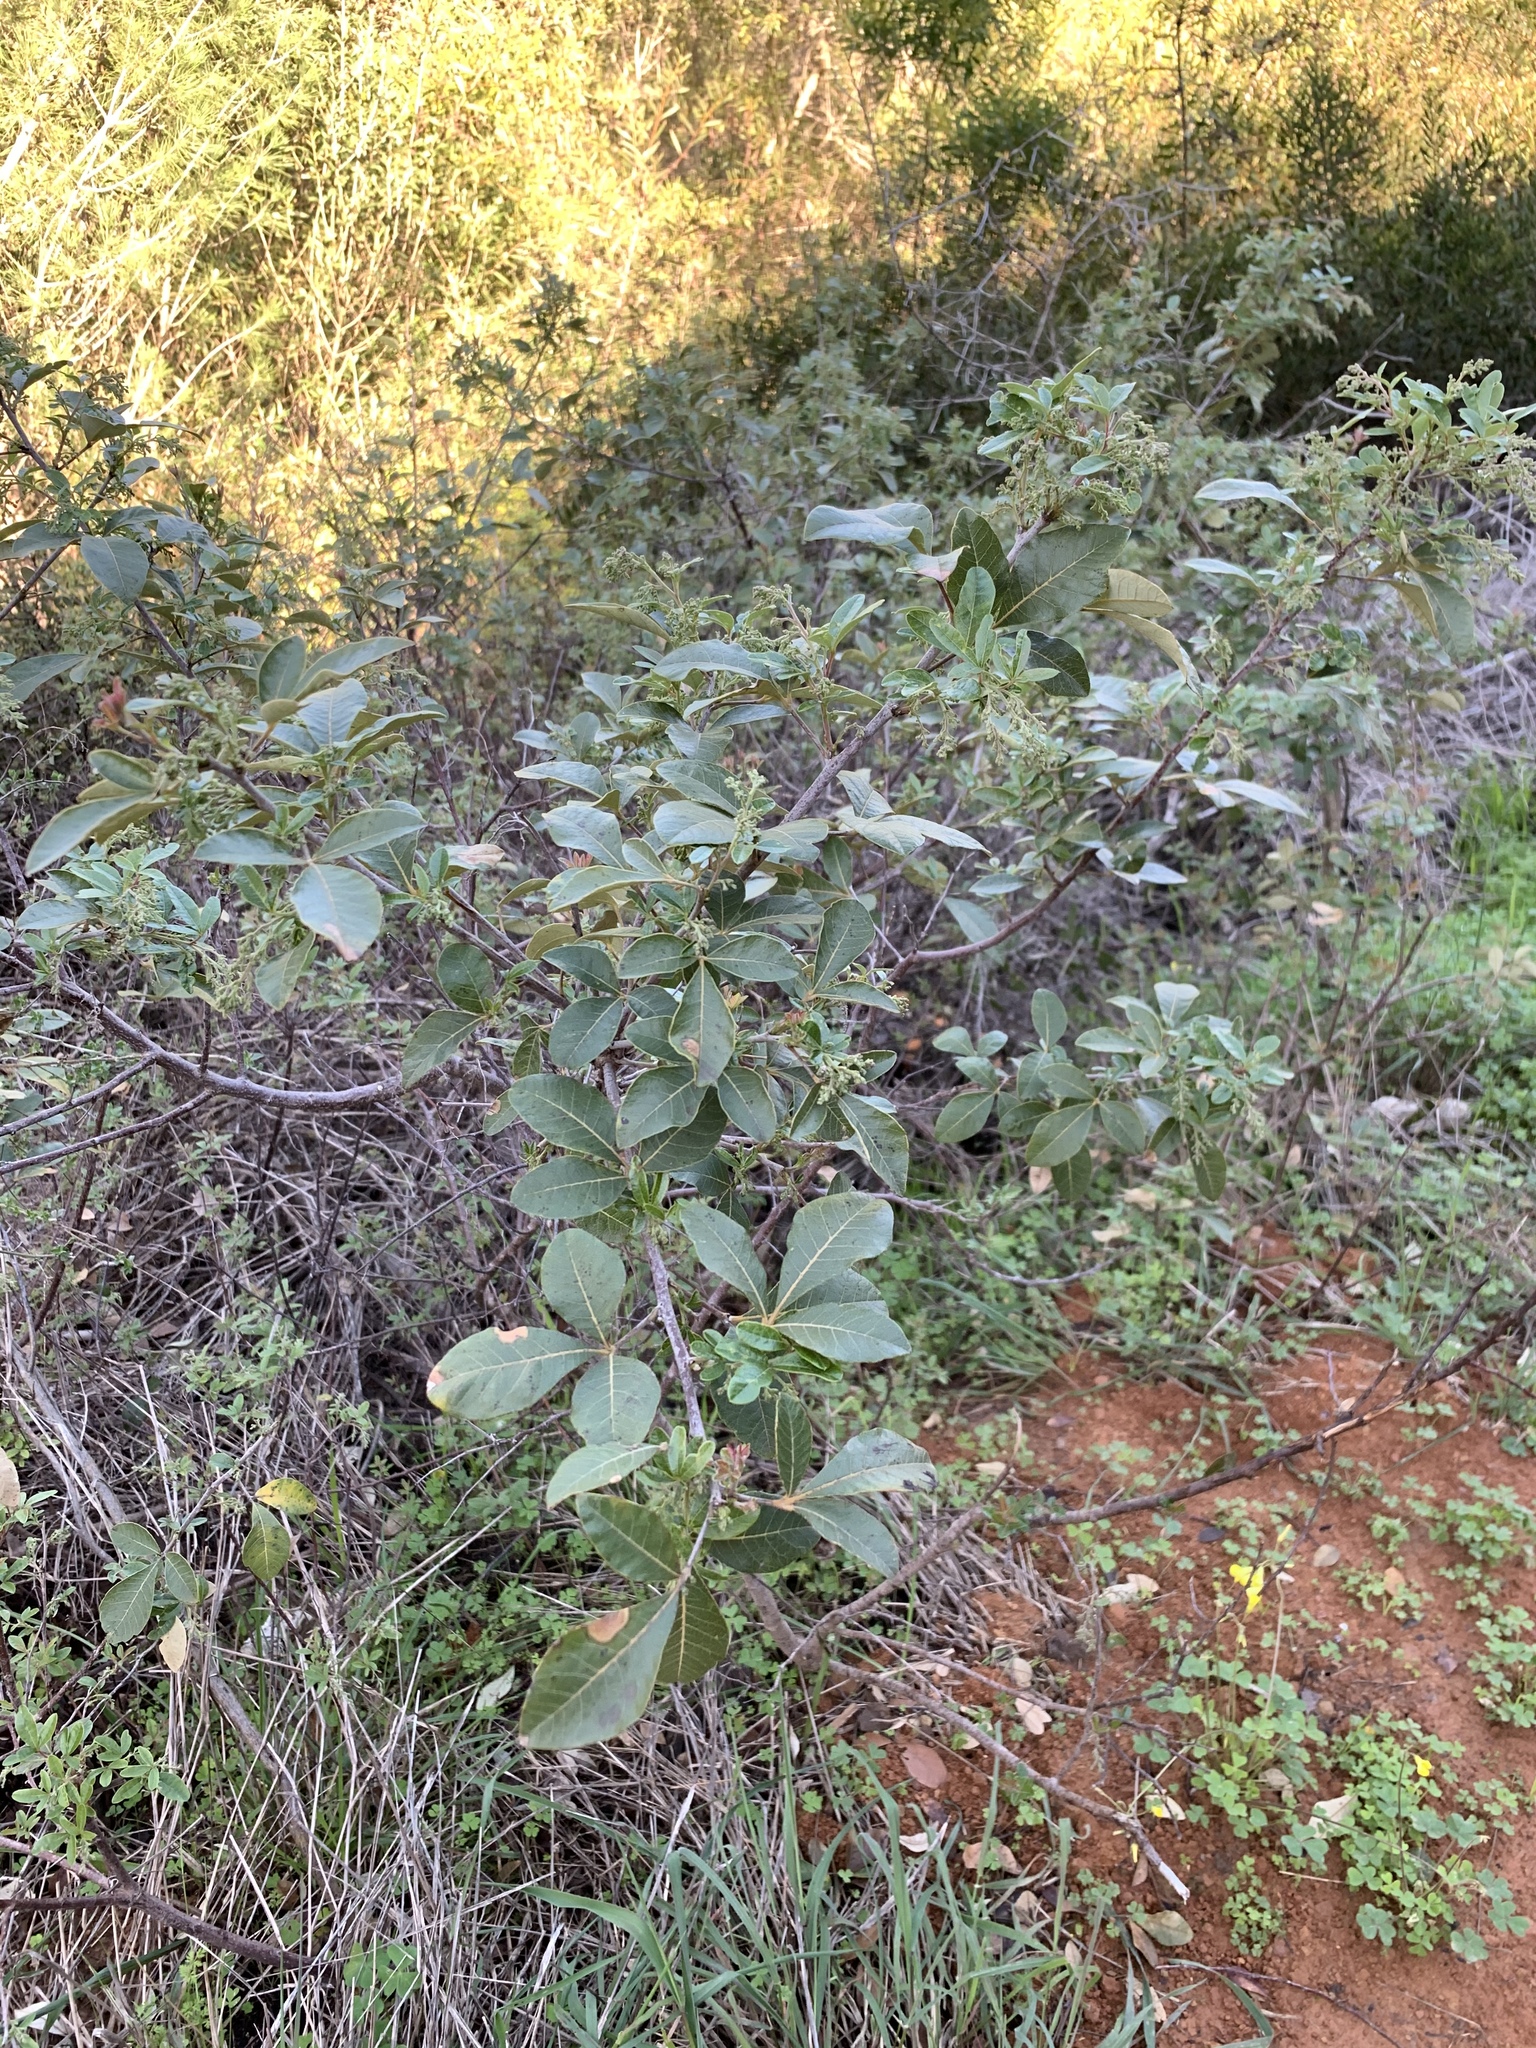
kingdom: Plantae
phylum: Tracheophyta
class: Magnoliopsida
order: Sapindales
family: Anacardiaceae
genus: Searsia
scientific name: Searsia tomentosa
